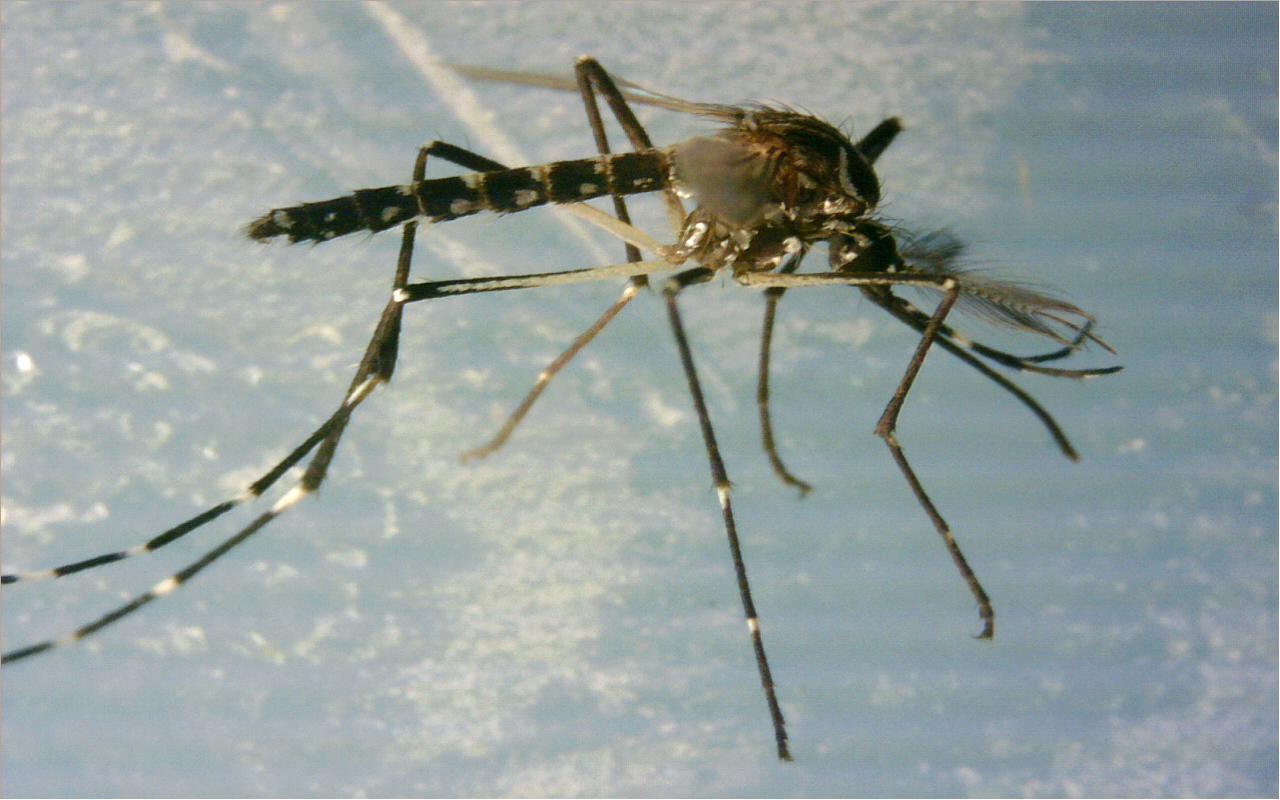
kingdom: Animalia
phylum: Arthropoda
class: Insecta
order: Diptera
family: Culicidae
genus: Aedes
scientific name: Aedes aegypti
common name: Yellow fever mosquito
